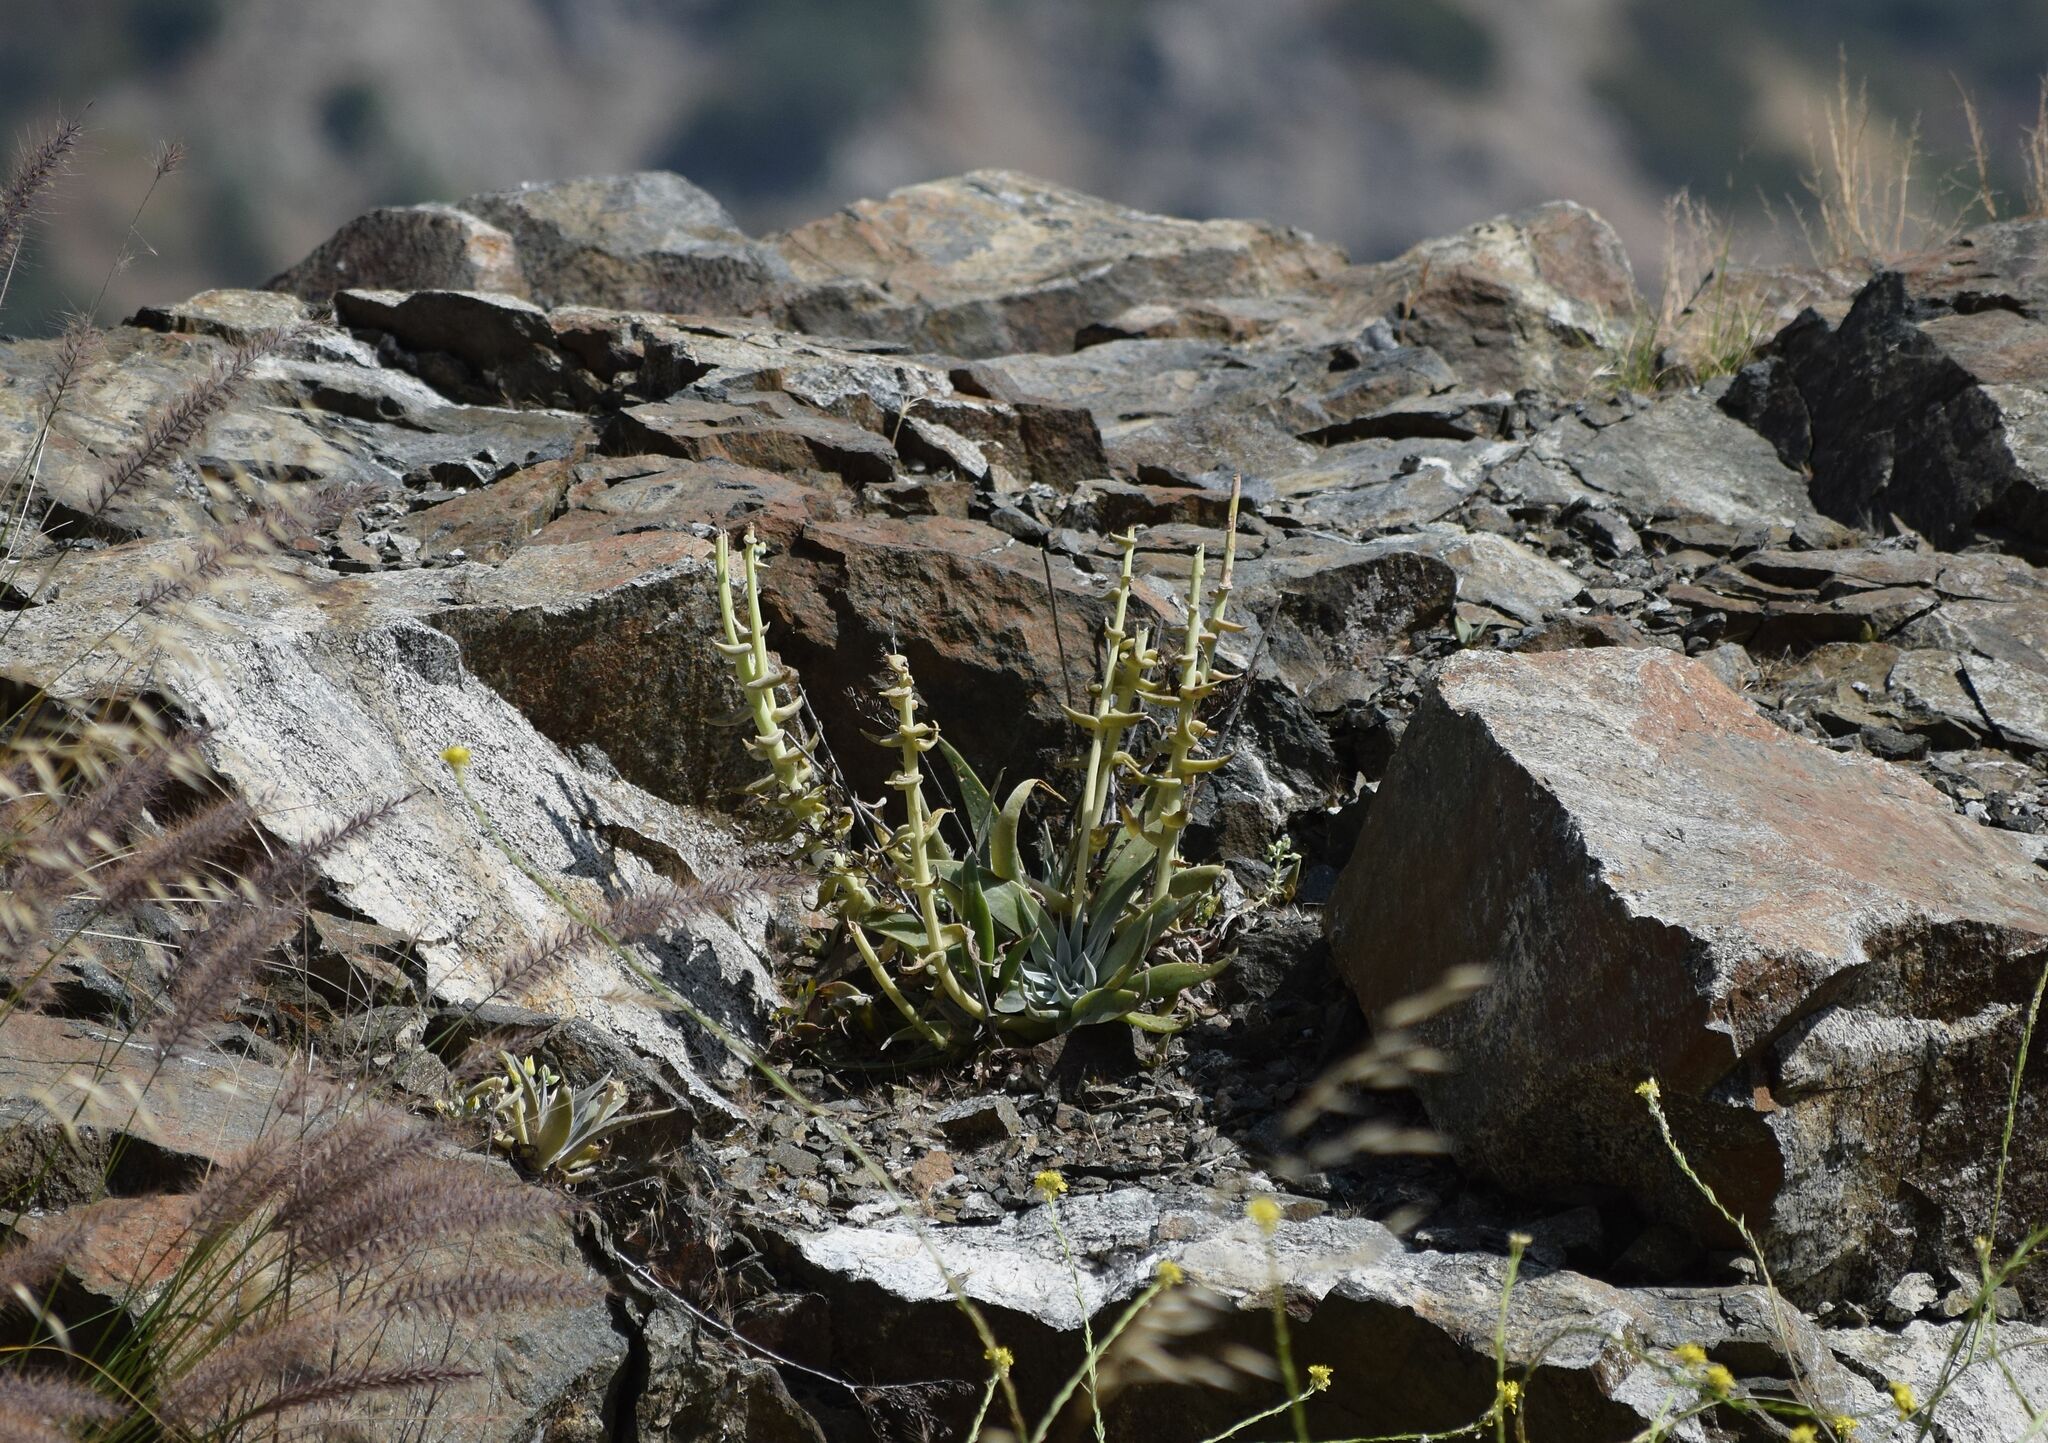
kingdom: Plantae
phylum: Tracheophyta
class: Magnoliopsida
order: Saxifragales
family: Crassulaceae
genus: Dudleya
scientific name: Dudleya lanceolata
